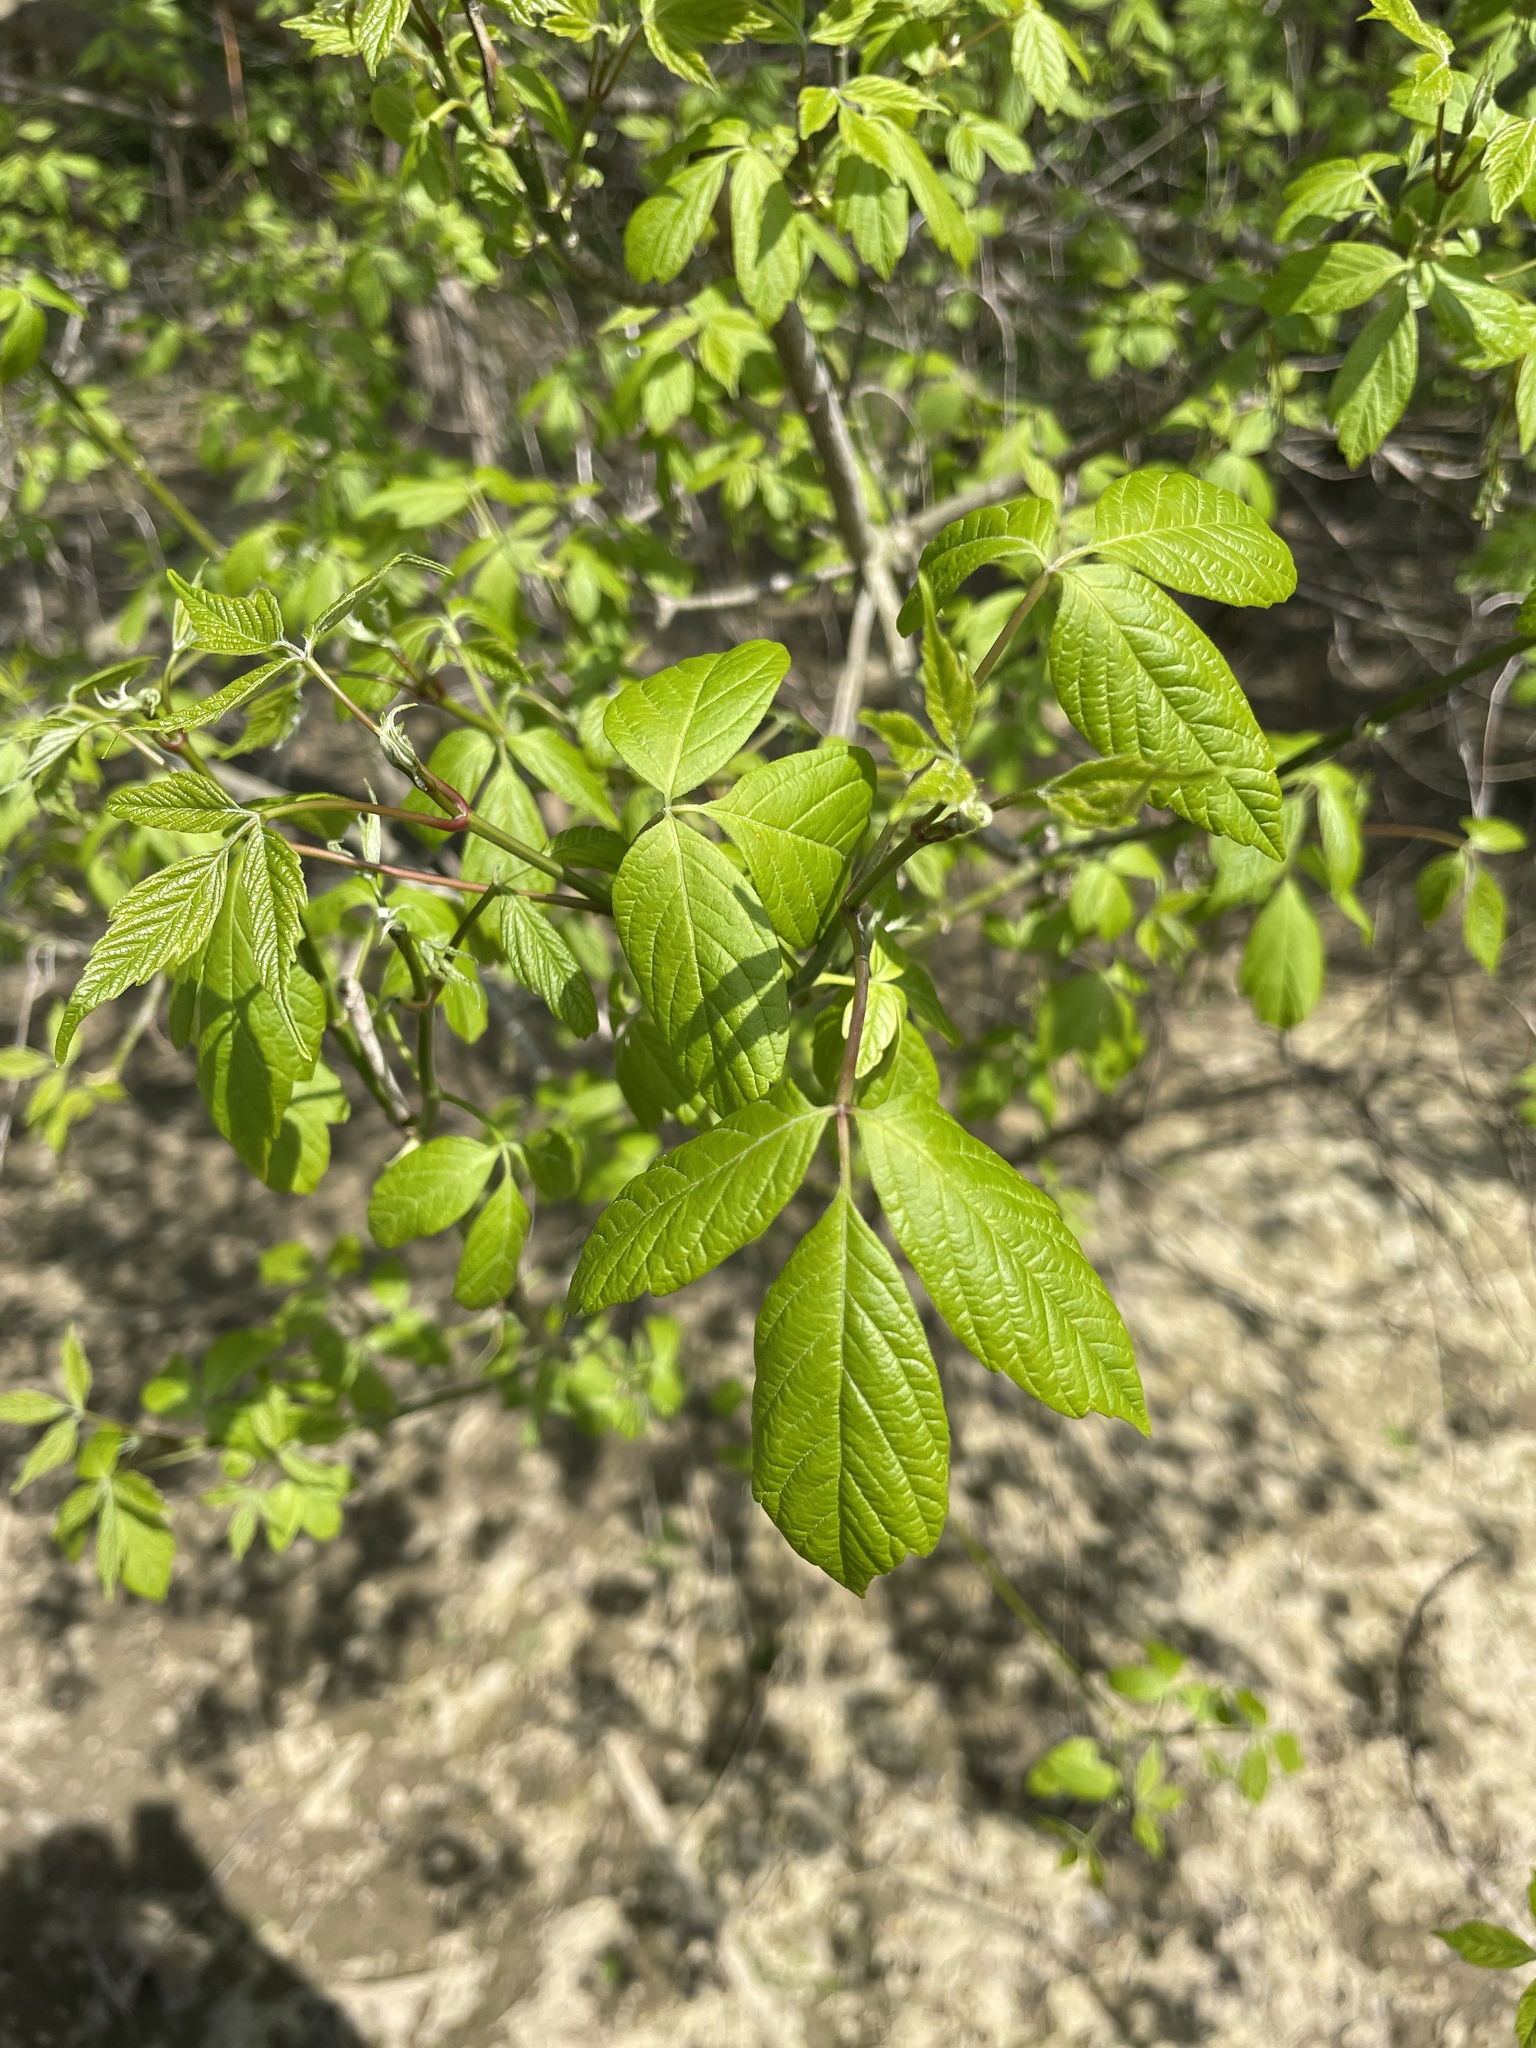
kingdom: Plantae
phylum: Tracheophyta
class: Magnoliopsida
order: Sapindales
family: Sapindaceae
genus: Acer
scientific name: Acer negundo
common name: Ashleaf maple
